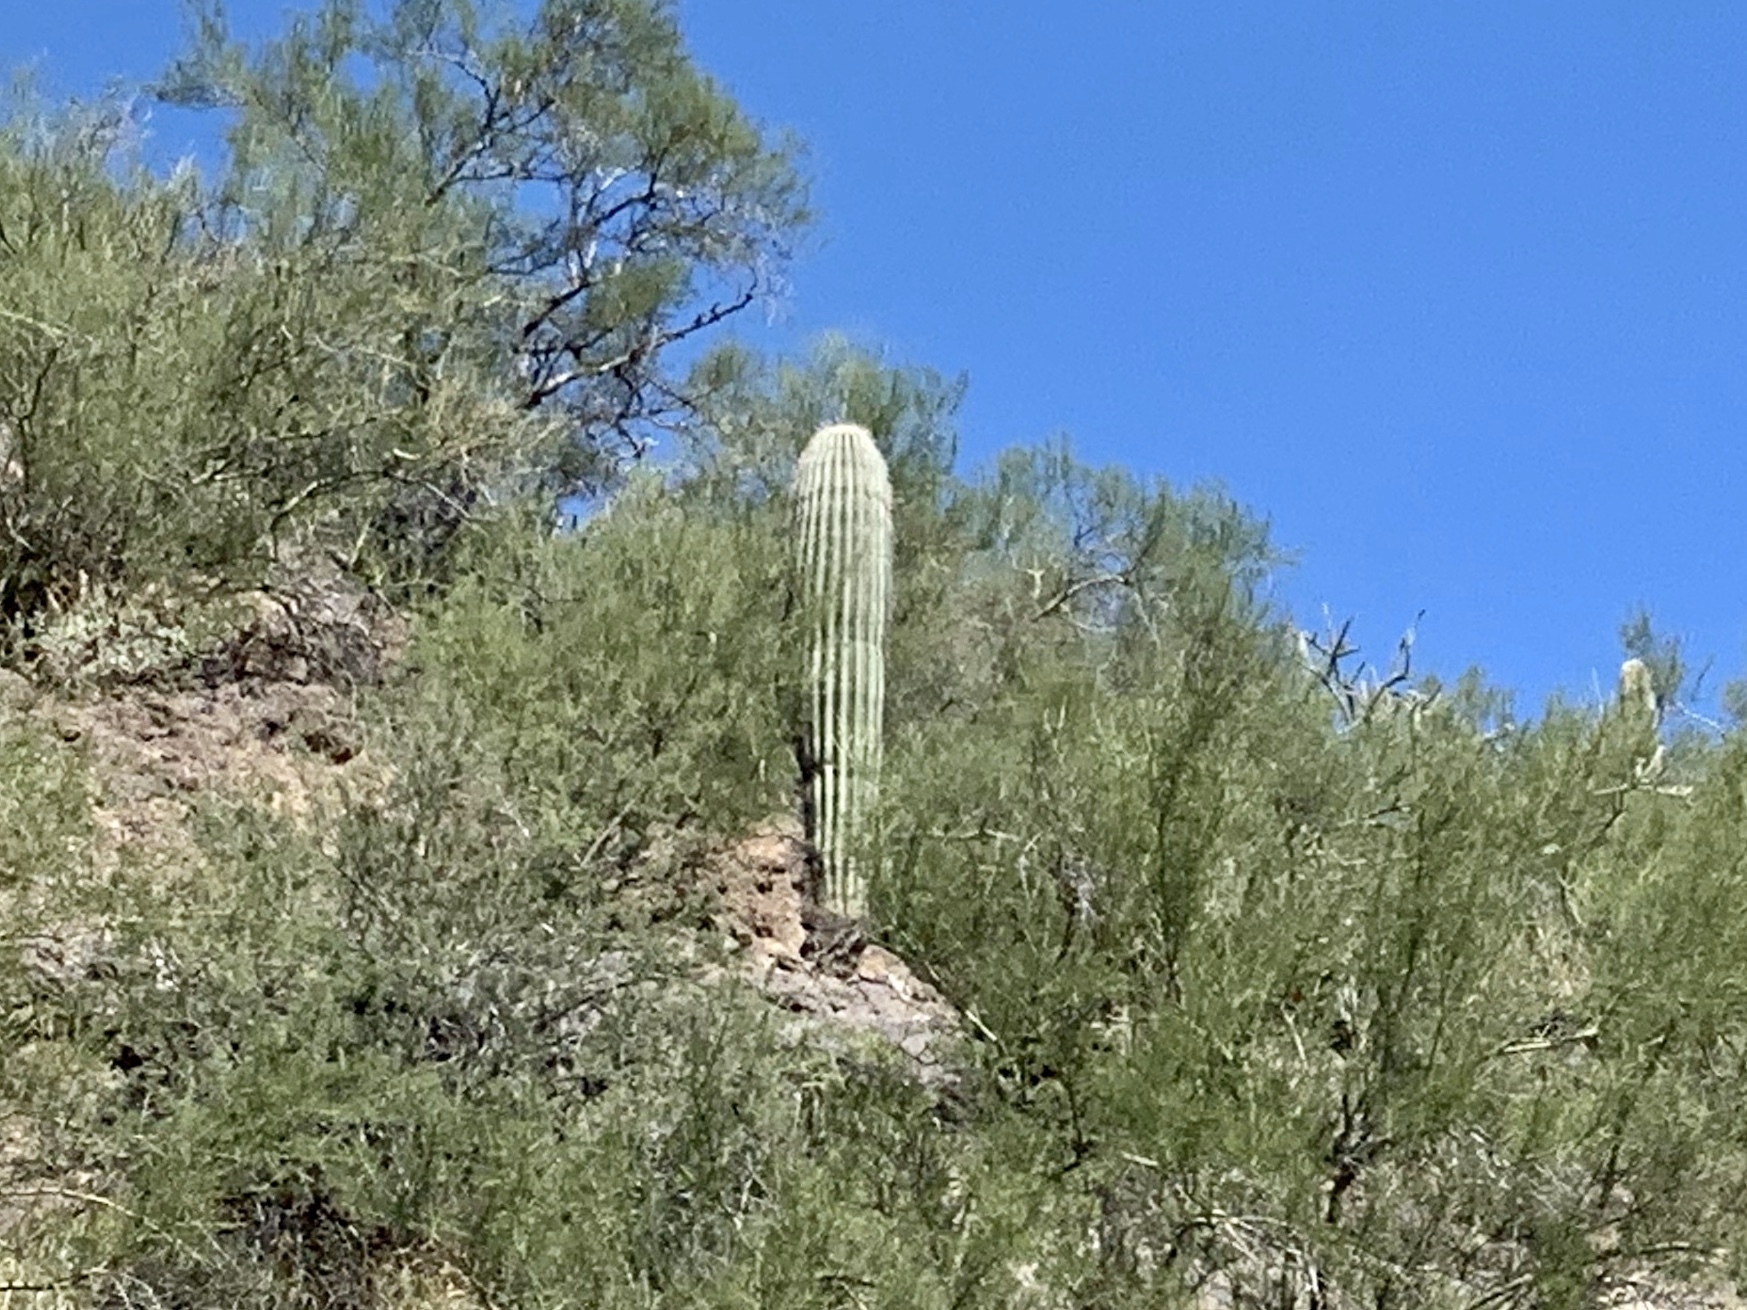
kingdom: Plantae
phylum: Tracheophyta
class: Magnoliopsida
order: Caryophyllales
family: Cactaceae
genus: Carnegiea
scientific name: Carnegiea gigantea
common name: Saguaro
